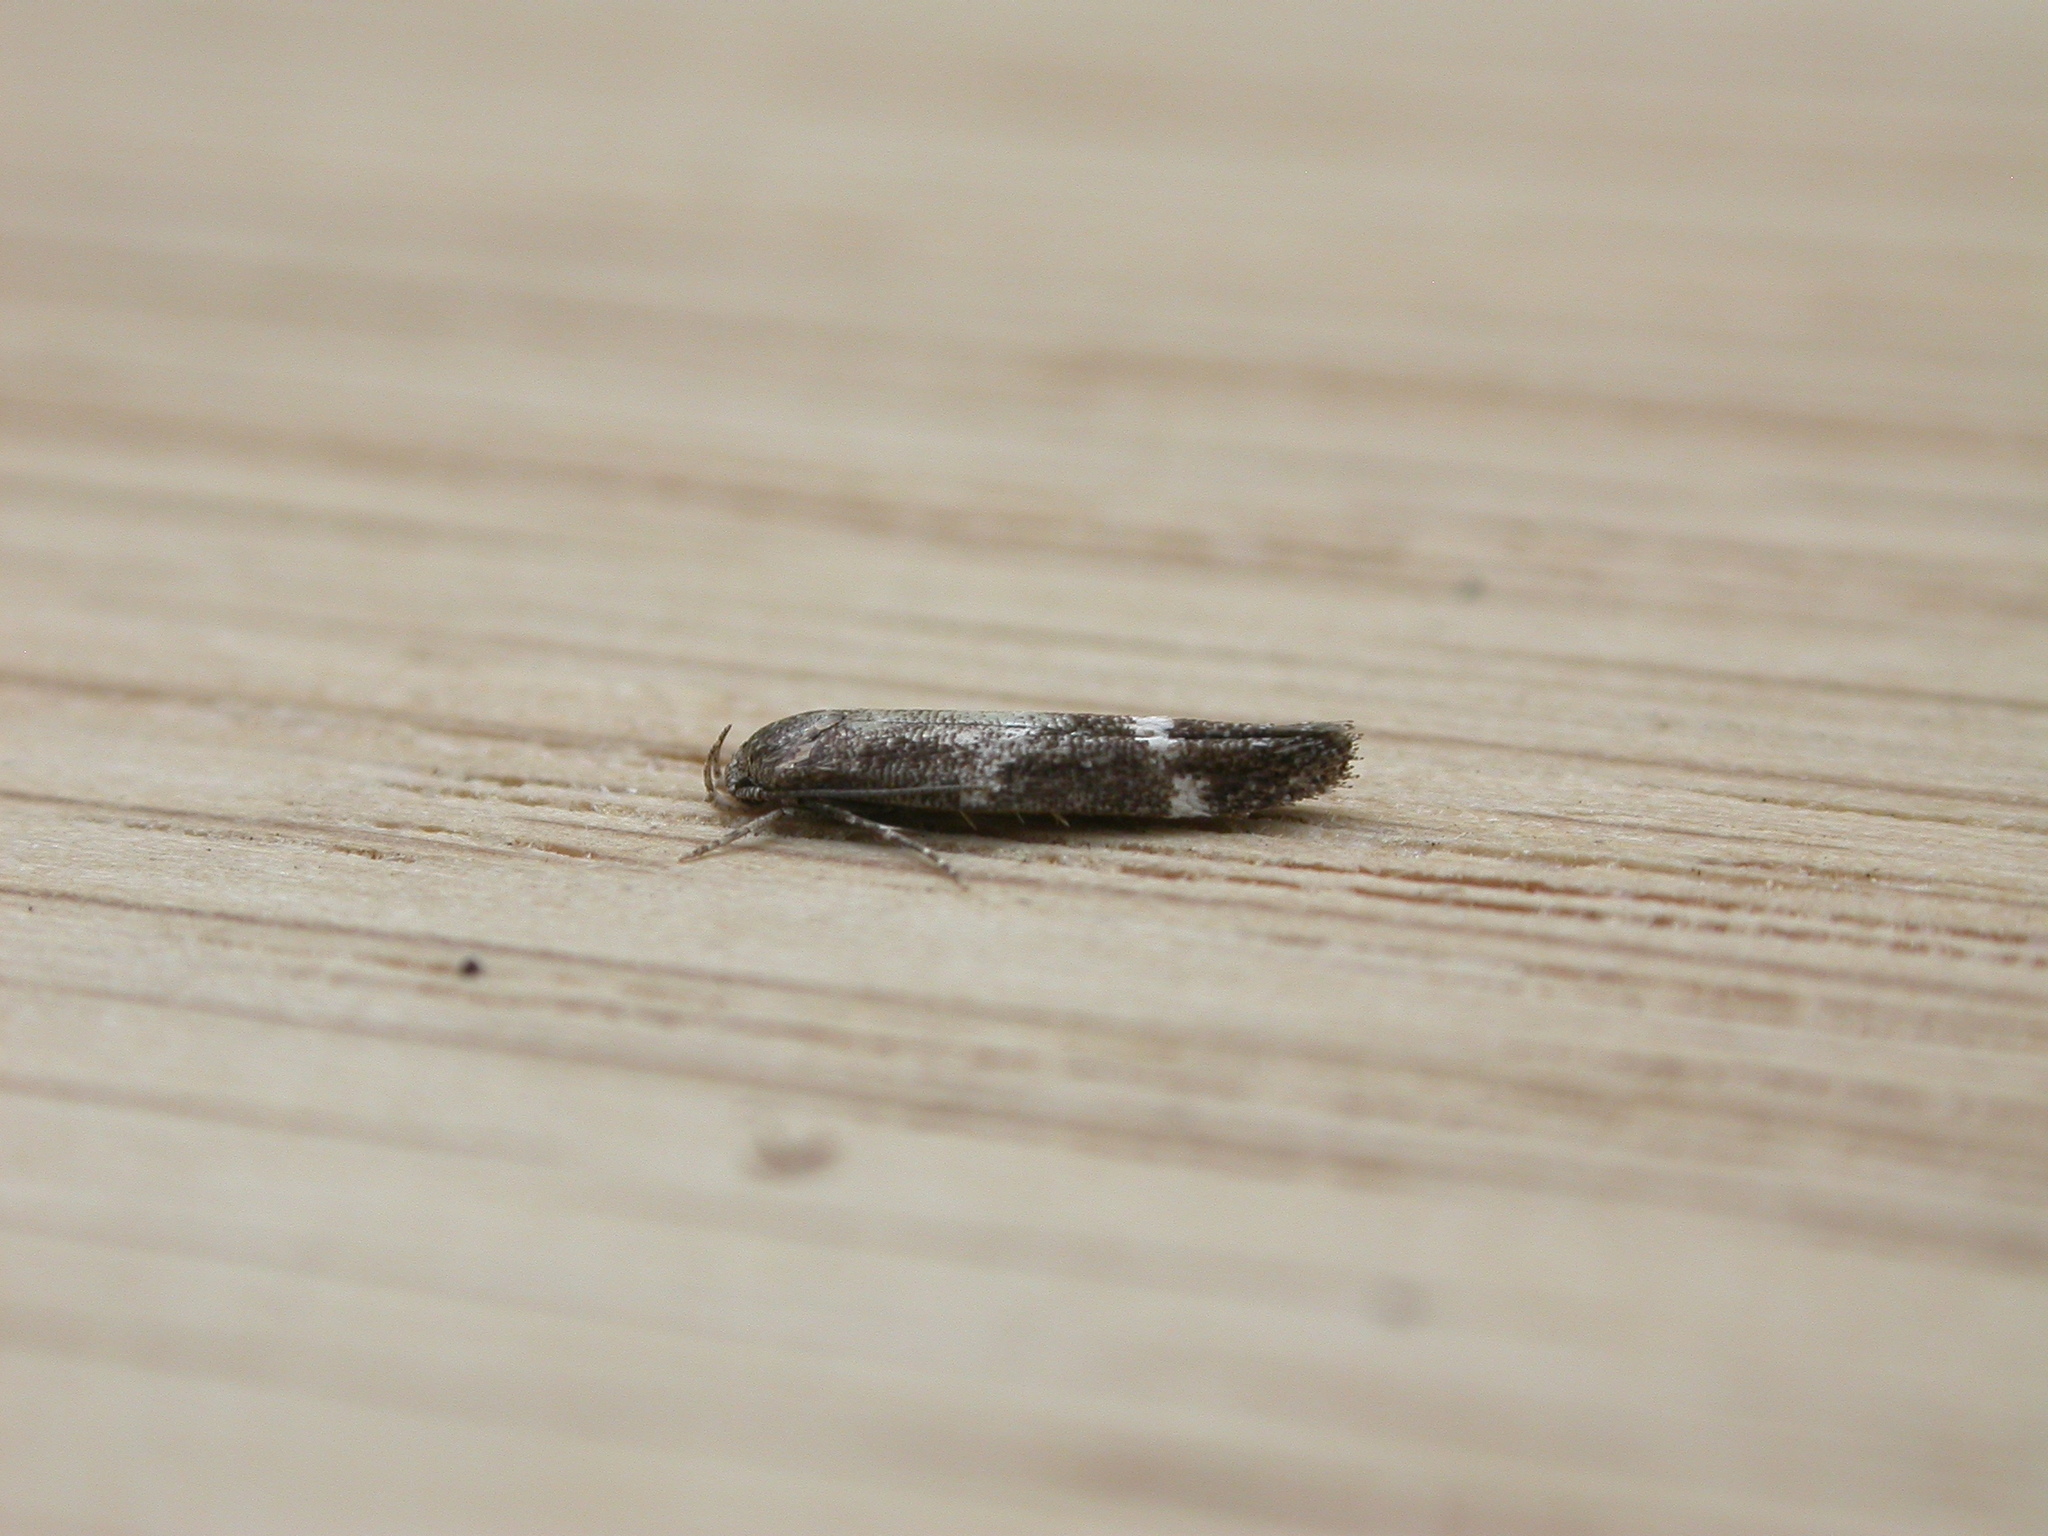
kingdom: Animalia
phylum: Arthropoda
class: Insecta
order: Lepidoptera
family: Momphidae
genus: Mompha
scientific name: Mompha subbistrigella
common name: Garden cosmet
